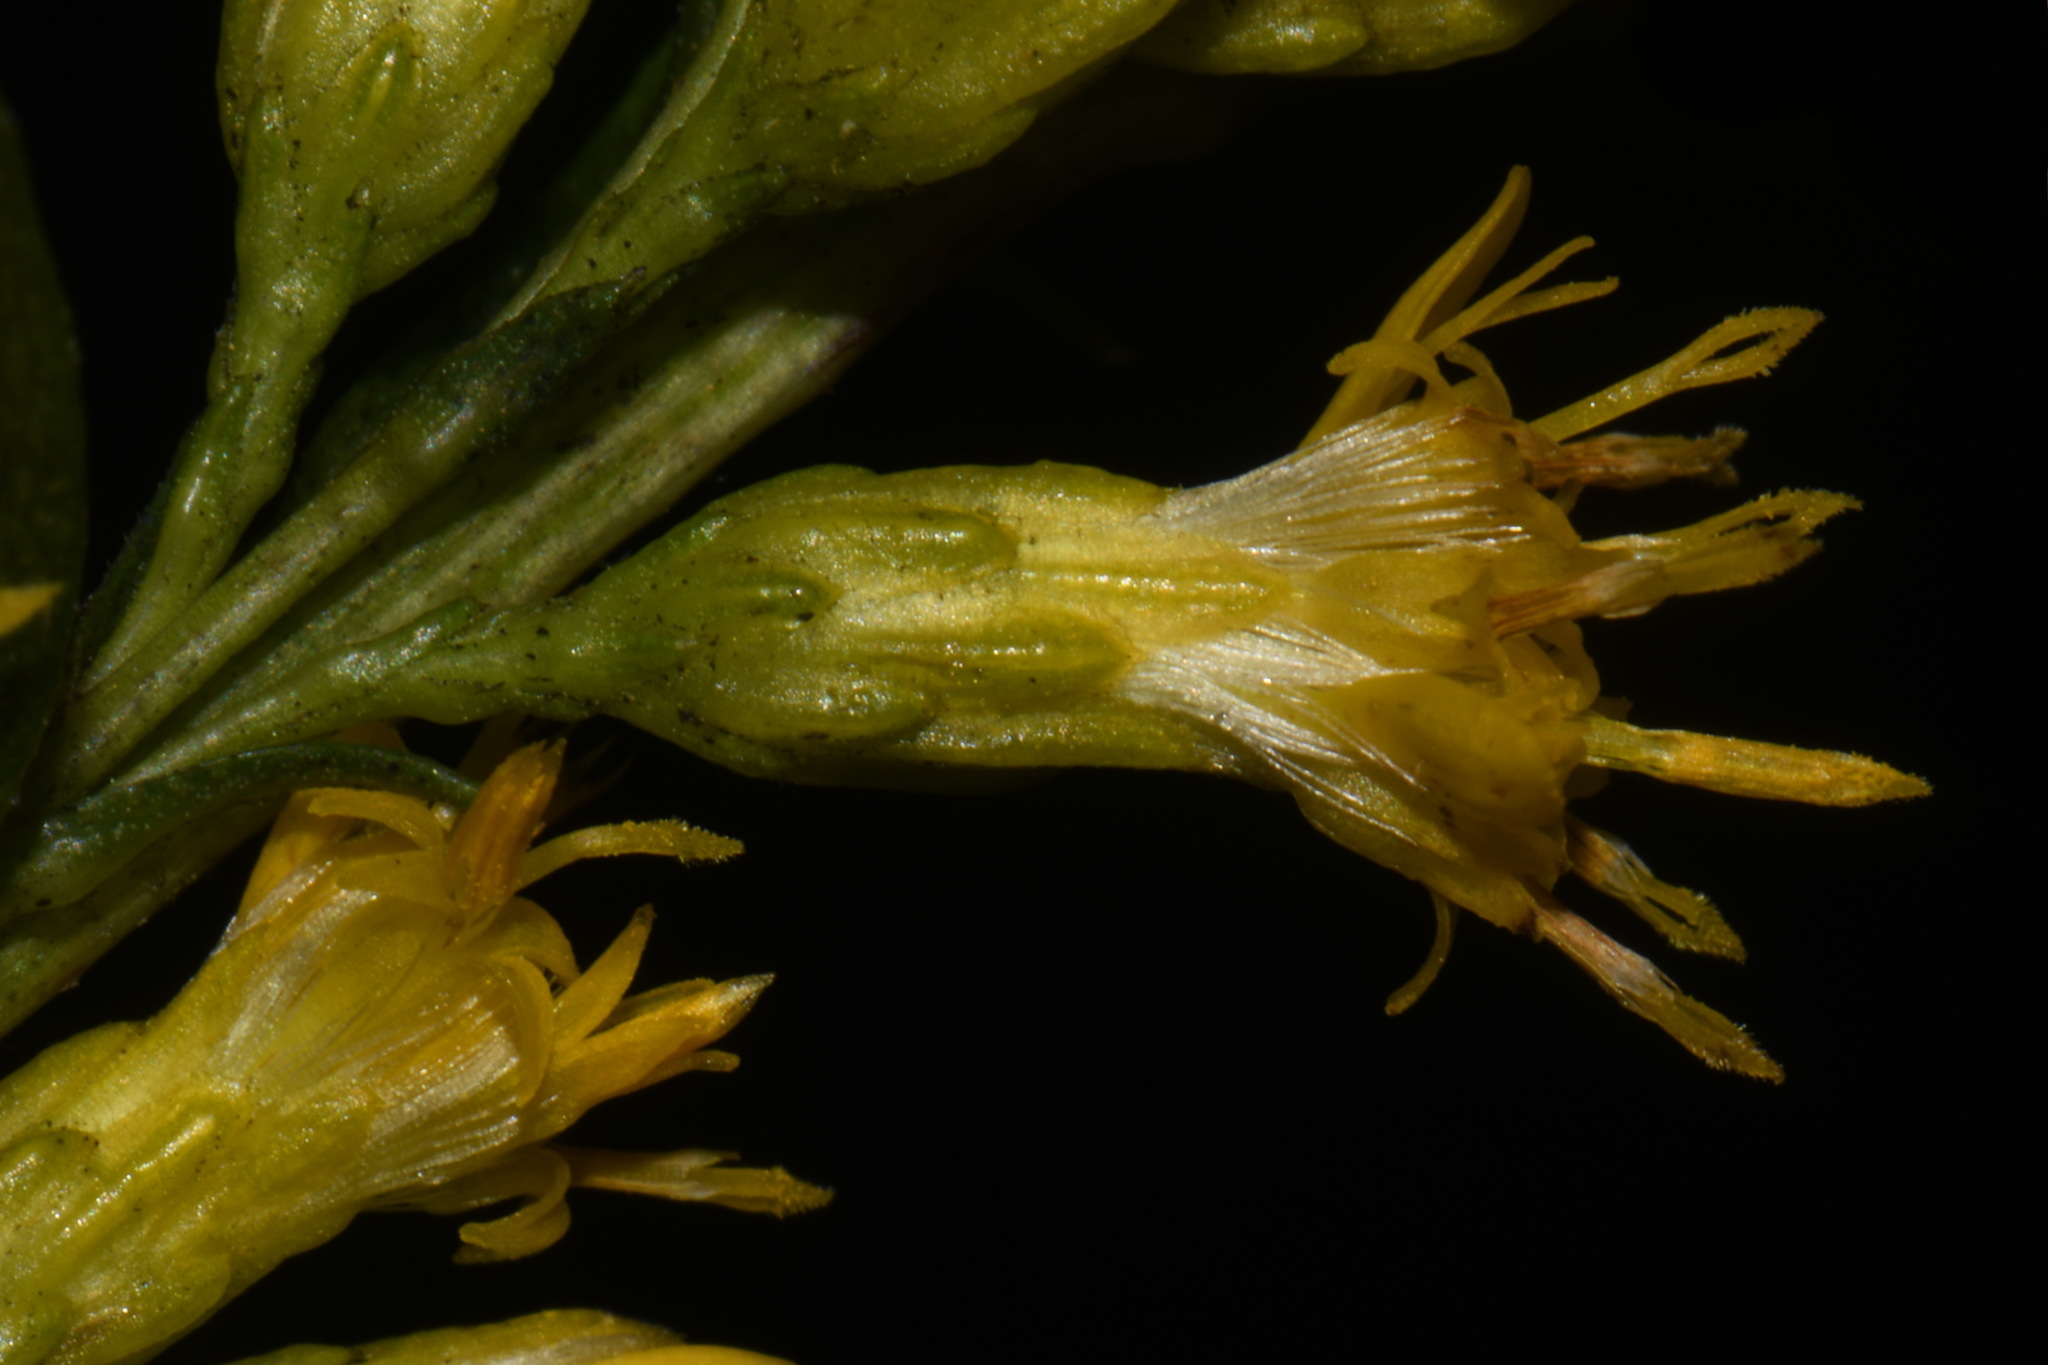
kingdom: Plantae
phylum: Tracheophyta
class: Magnoliopsida
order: Asterales
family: Asteraceae
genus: Solidago
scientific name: Solidago austrina
